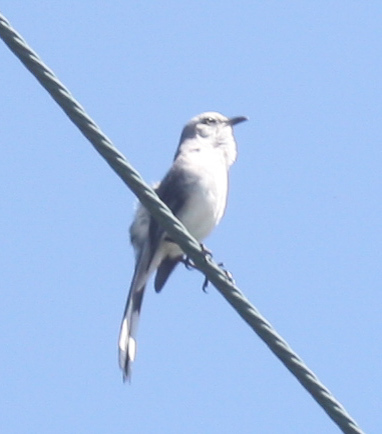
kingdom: Animalia
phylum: Chordata
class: Aves
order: Passeriformes
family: Mimidae
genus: Mimus
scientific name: Mimus gilvus
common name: Tropical mockingbird
